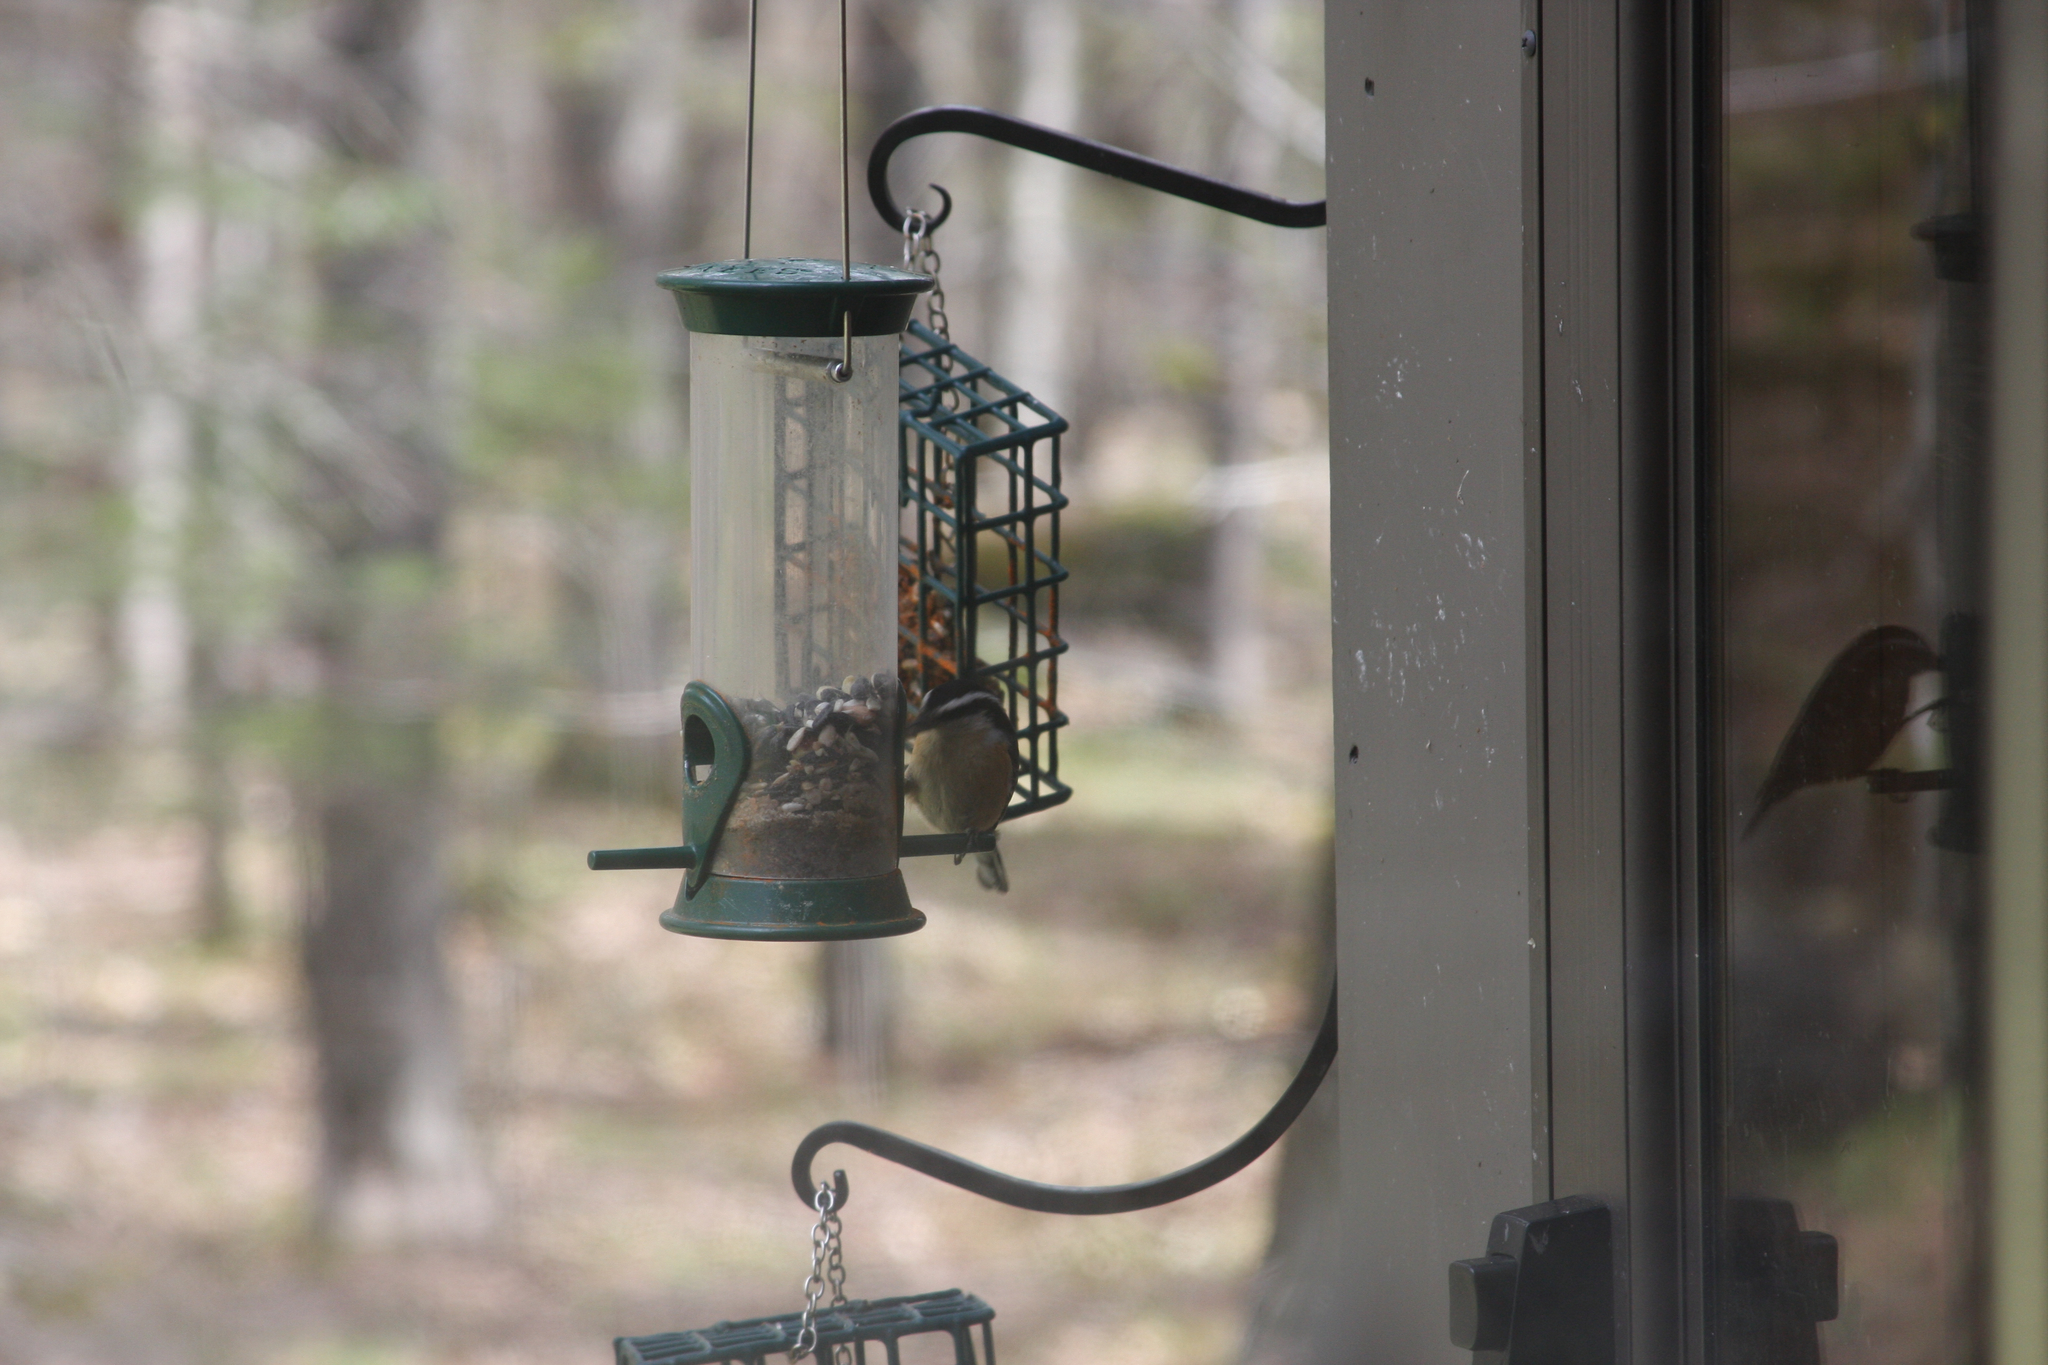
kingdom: Animalia
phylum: Chordata
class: Aves
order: Passeriformes
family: Sittidae
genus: Sitta
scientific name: Sitta canadensis
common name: Red-breasted nuthatch
